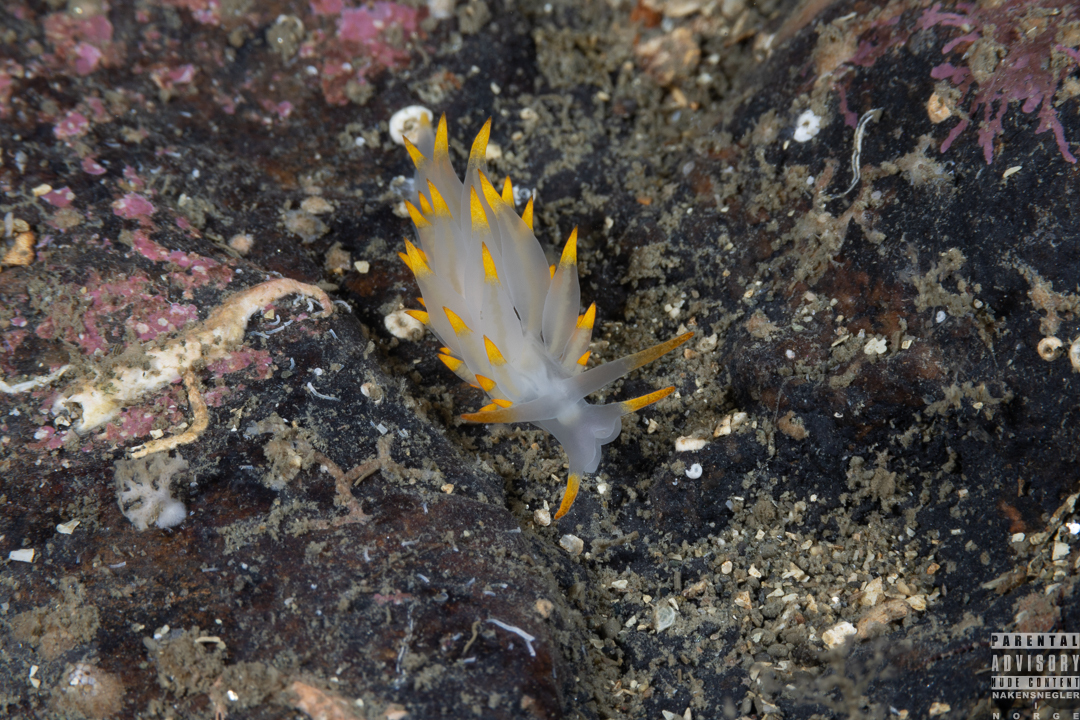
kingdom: Animalia
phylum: Mollusca
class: Gastropoda
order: Nudibranchia
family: Eubranchidae
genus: Amphorina
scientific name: Amphorina farrani
